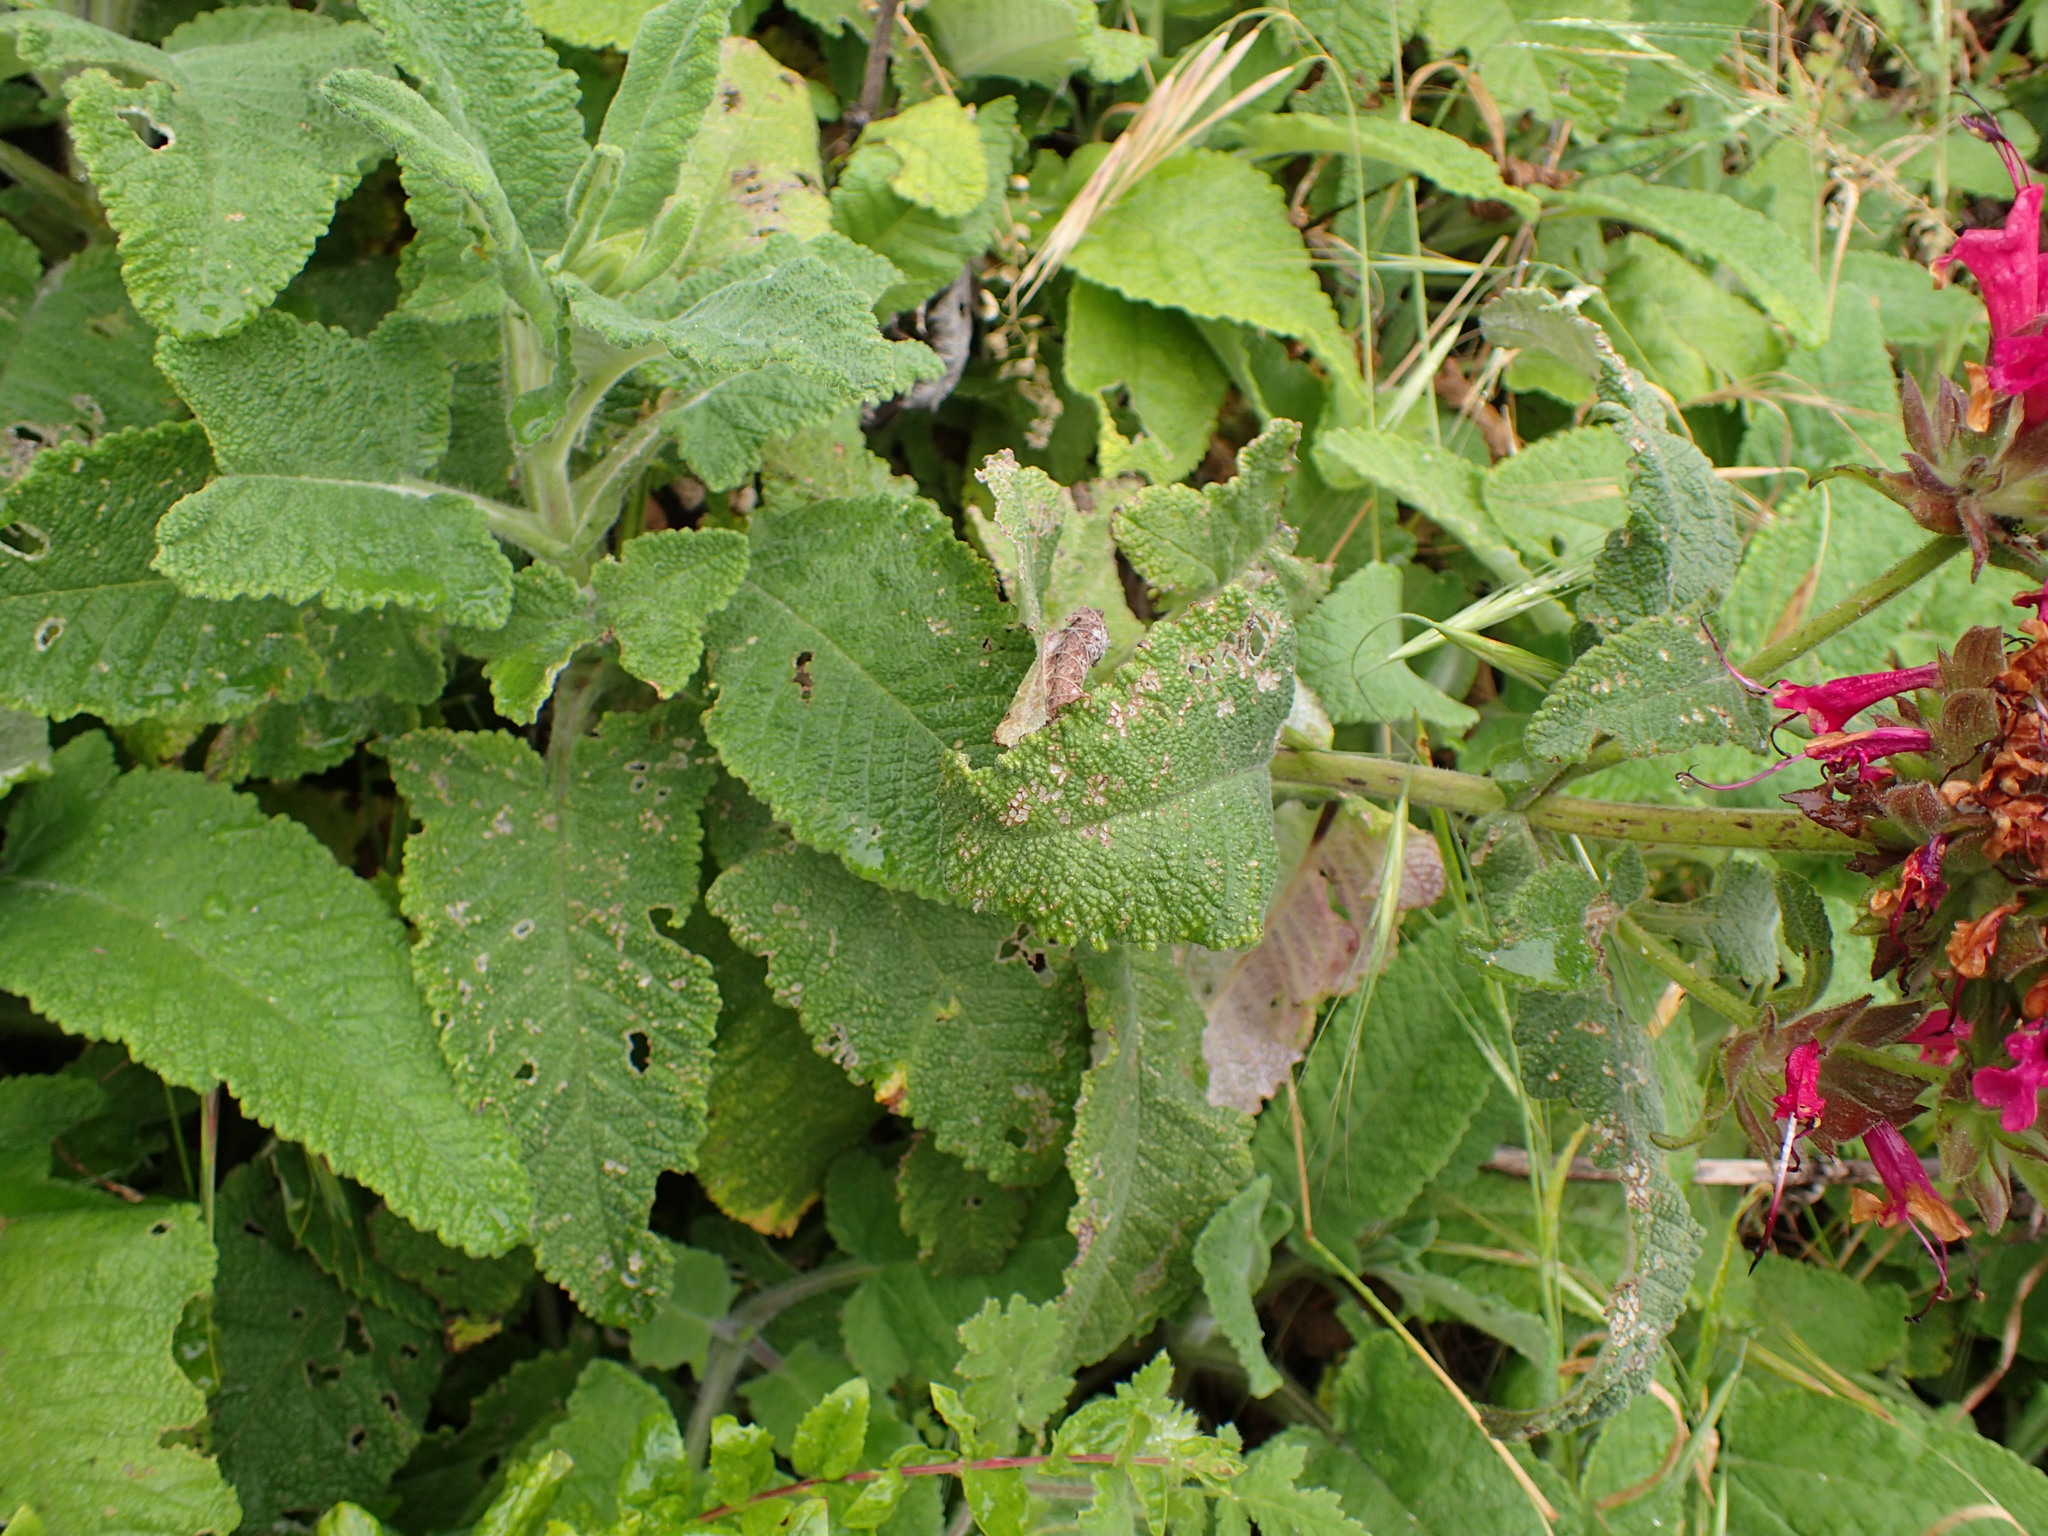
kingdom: Plantae
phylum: Tracheophyta
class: Magnoliopsida
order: Lamiales
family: Lamiaceae
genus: Salvia
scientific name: Salvia spathacea
